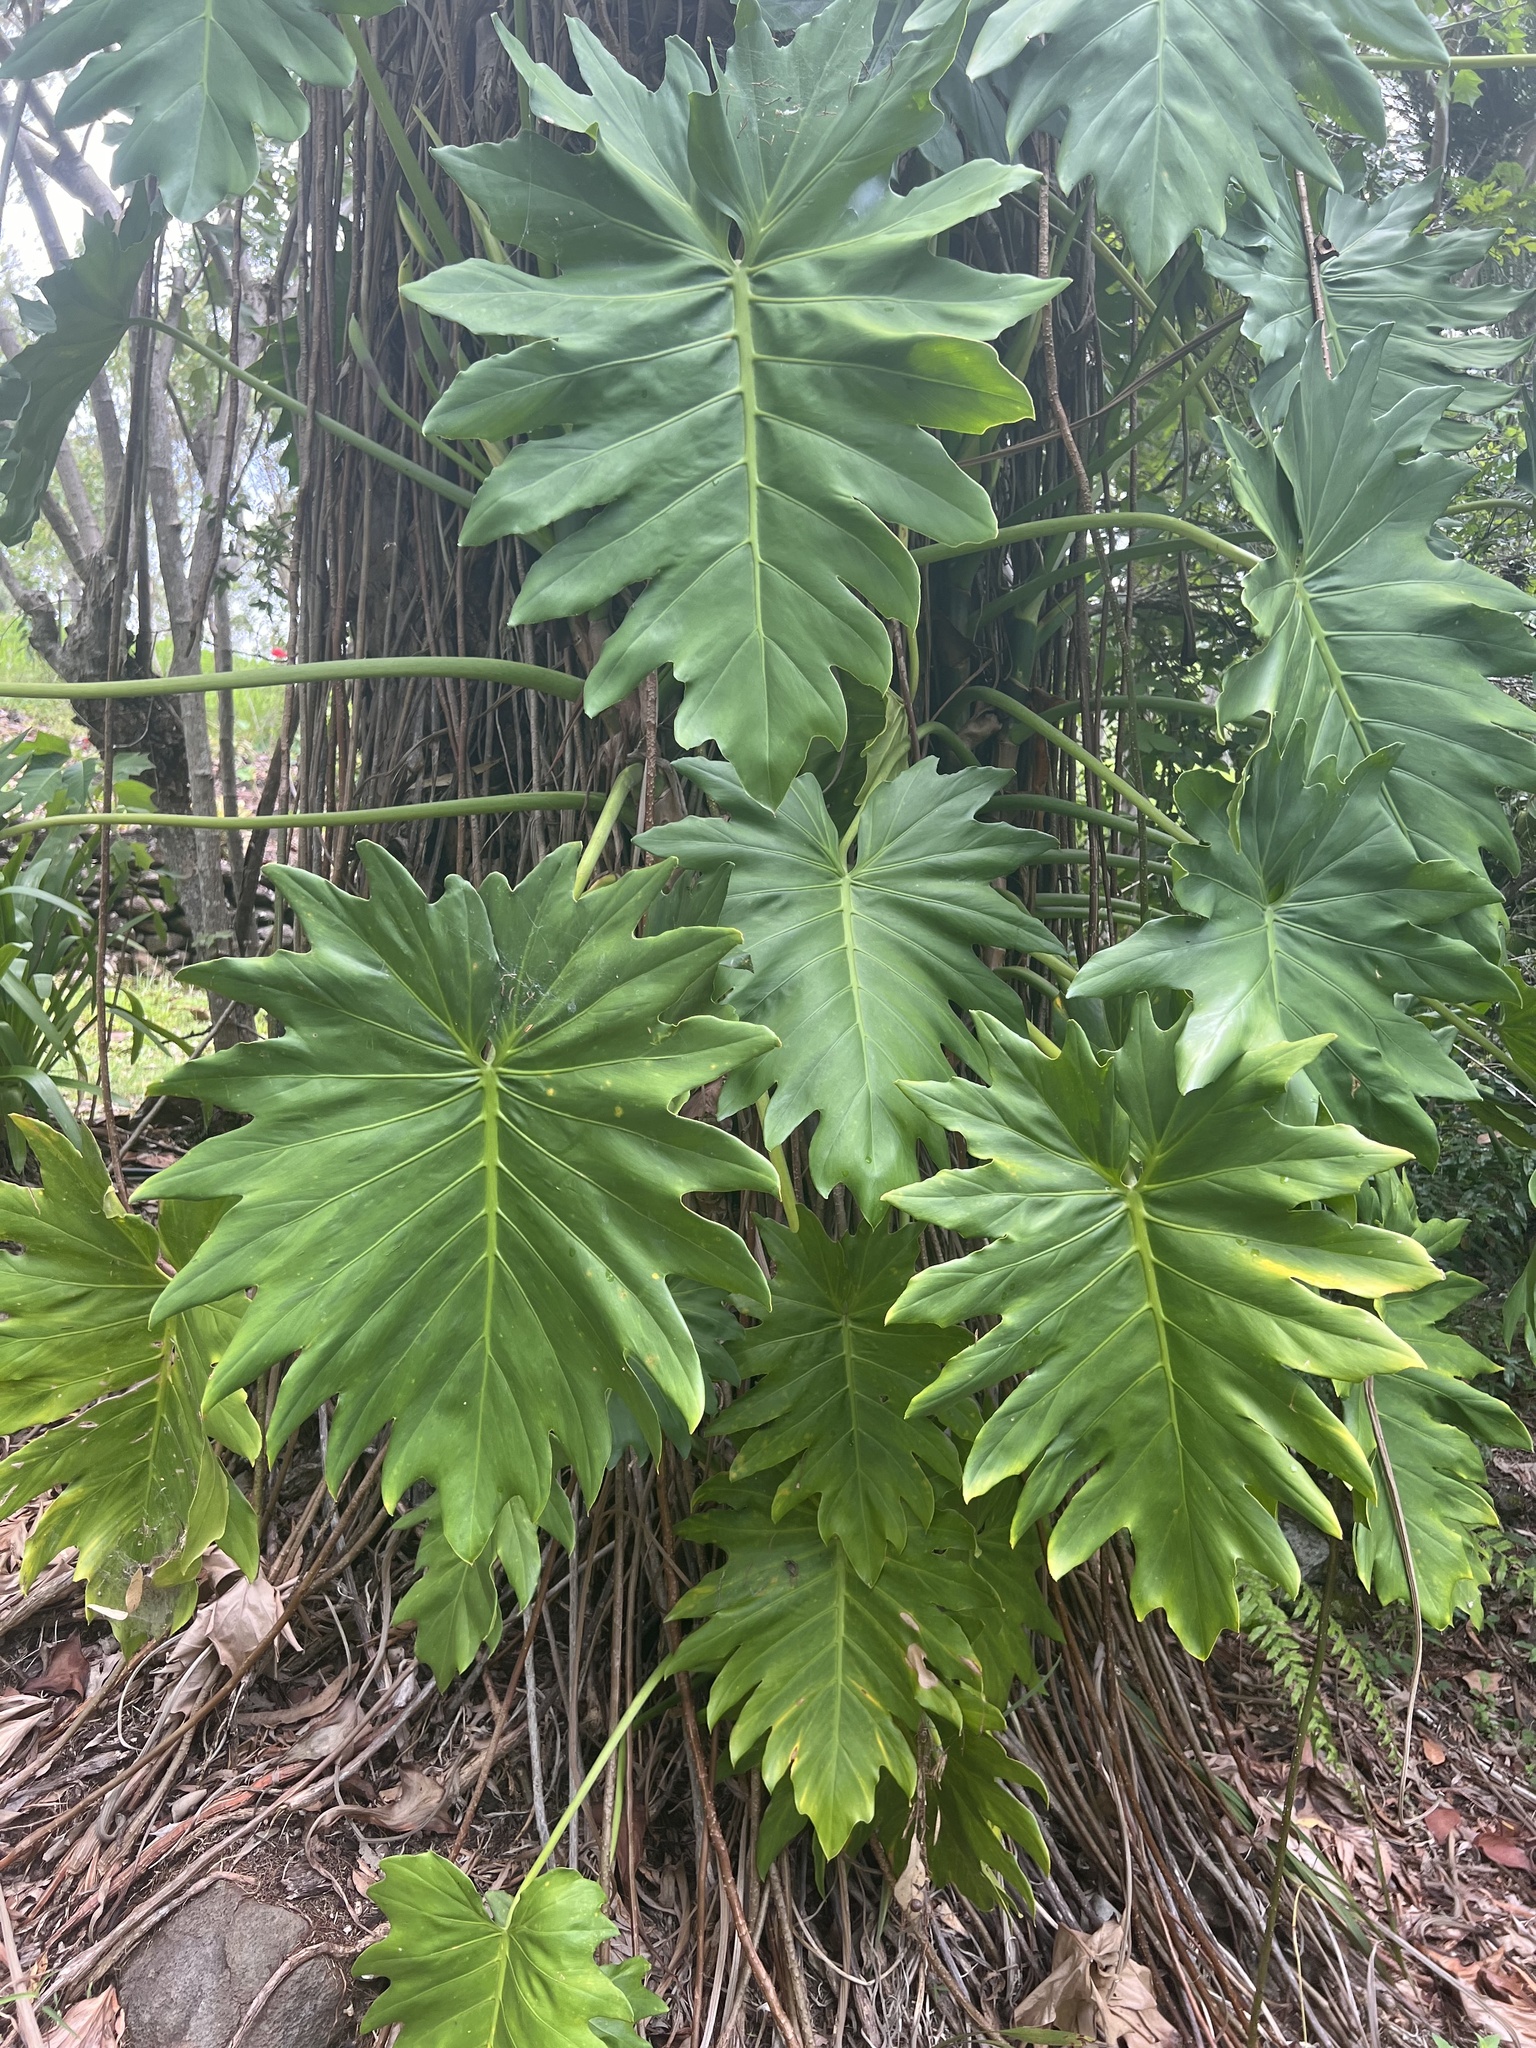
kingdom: Plantae
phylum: Tracheophyta
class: Liliopsida
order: Alismatales
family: Araceae
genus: Philodendron
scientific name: Philodendron lacerum
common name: Philodendron
